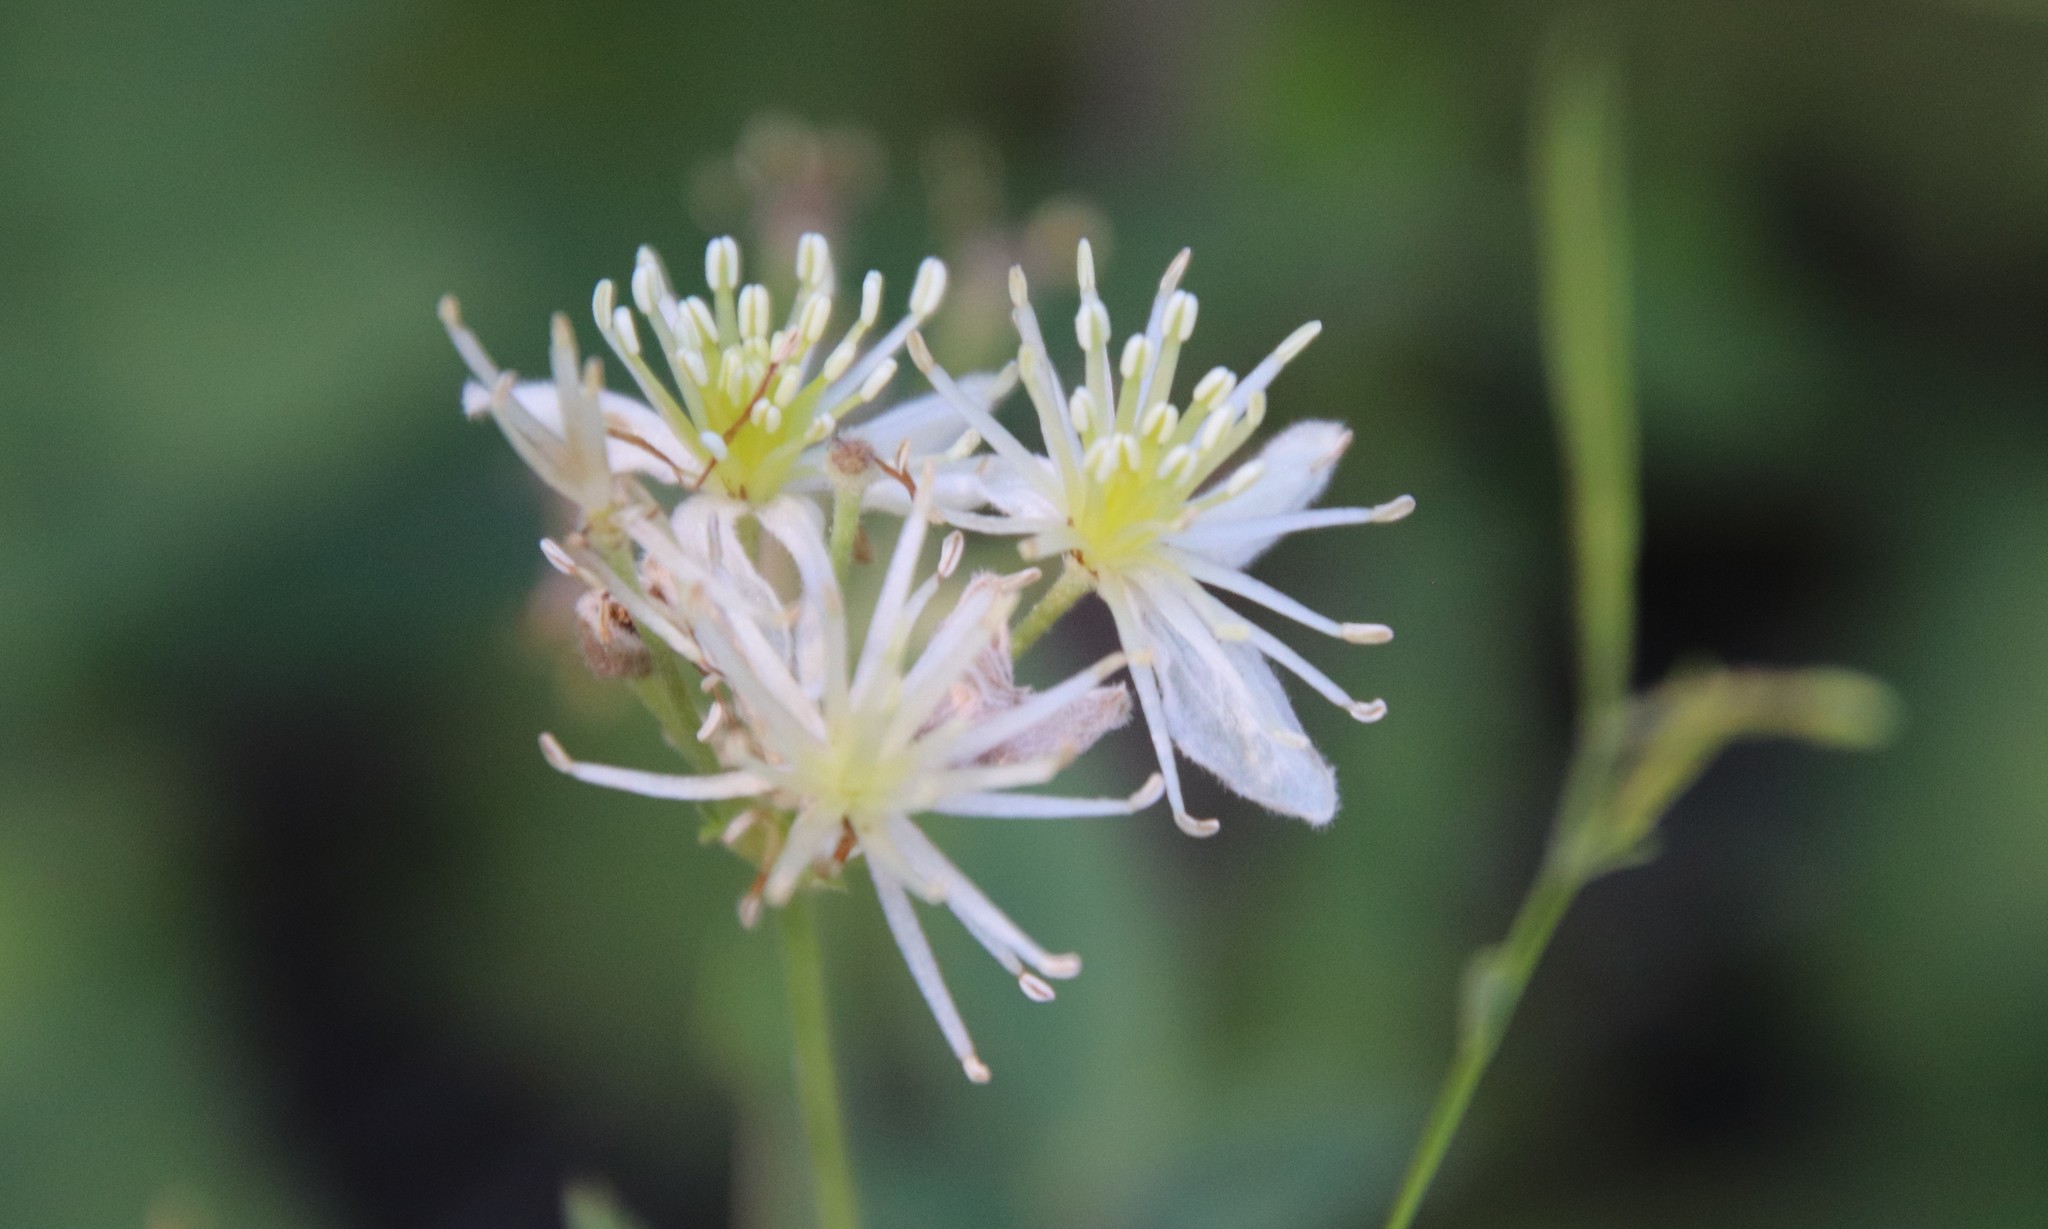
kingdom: Plantae
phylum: Tracheophyta
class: Magnoliopsida
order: Ranunculales
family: Ranunculaceae
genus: Clematis
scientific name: Clematis ligusticifolia
